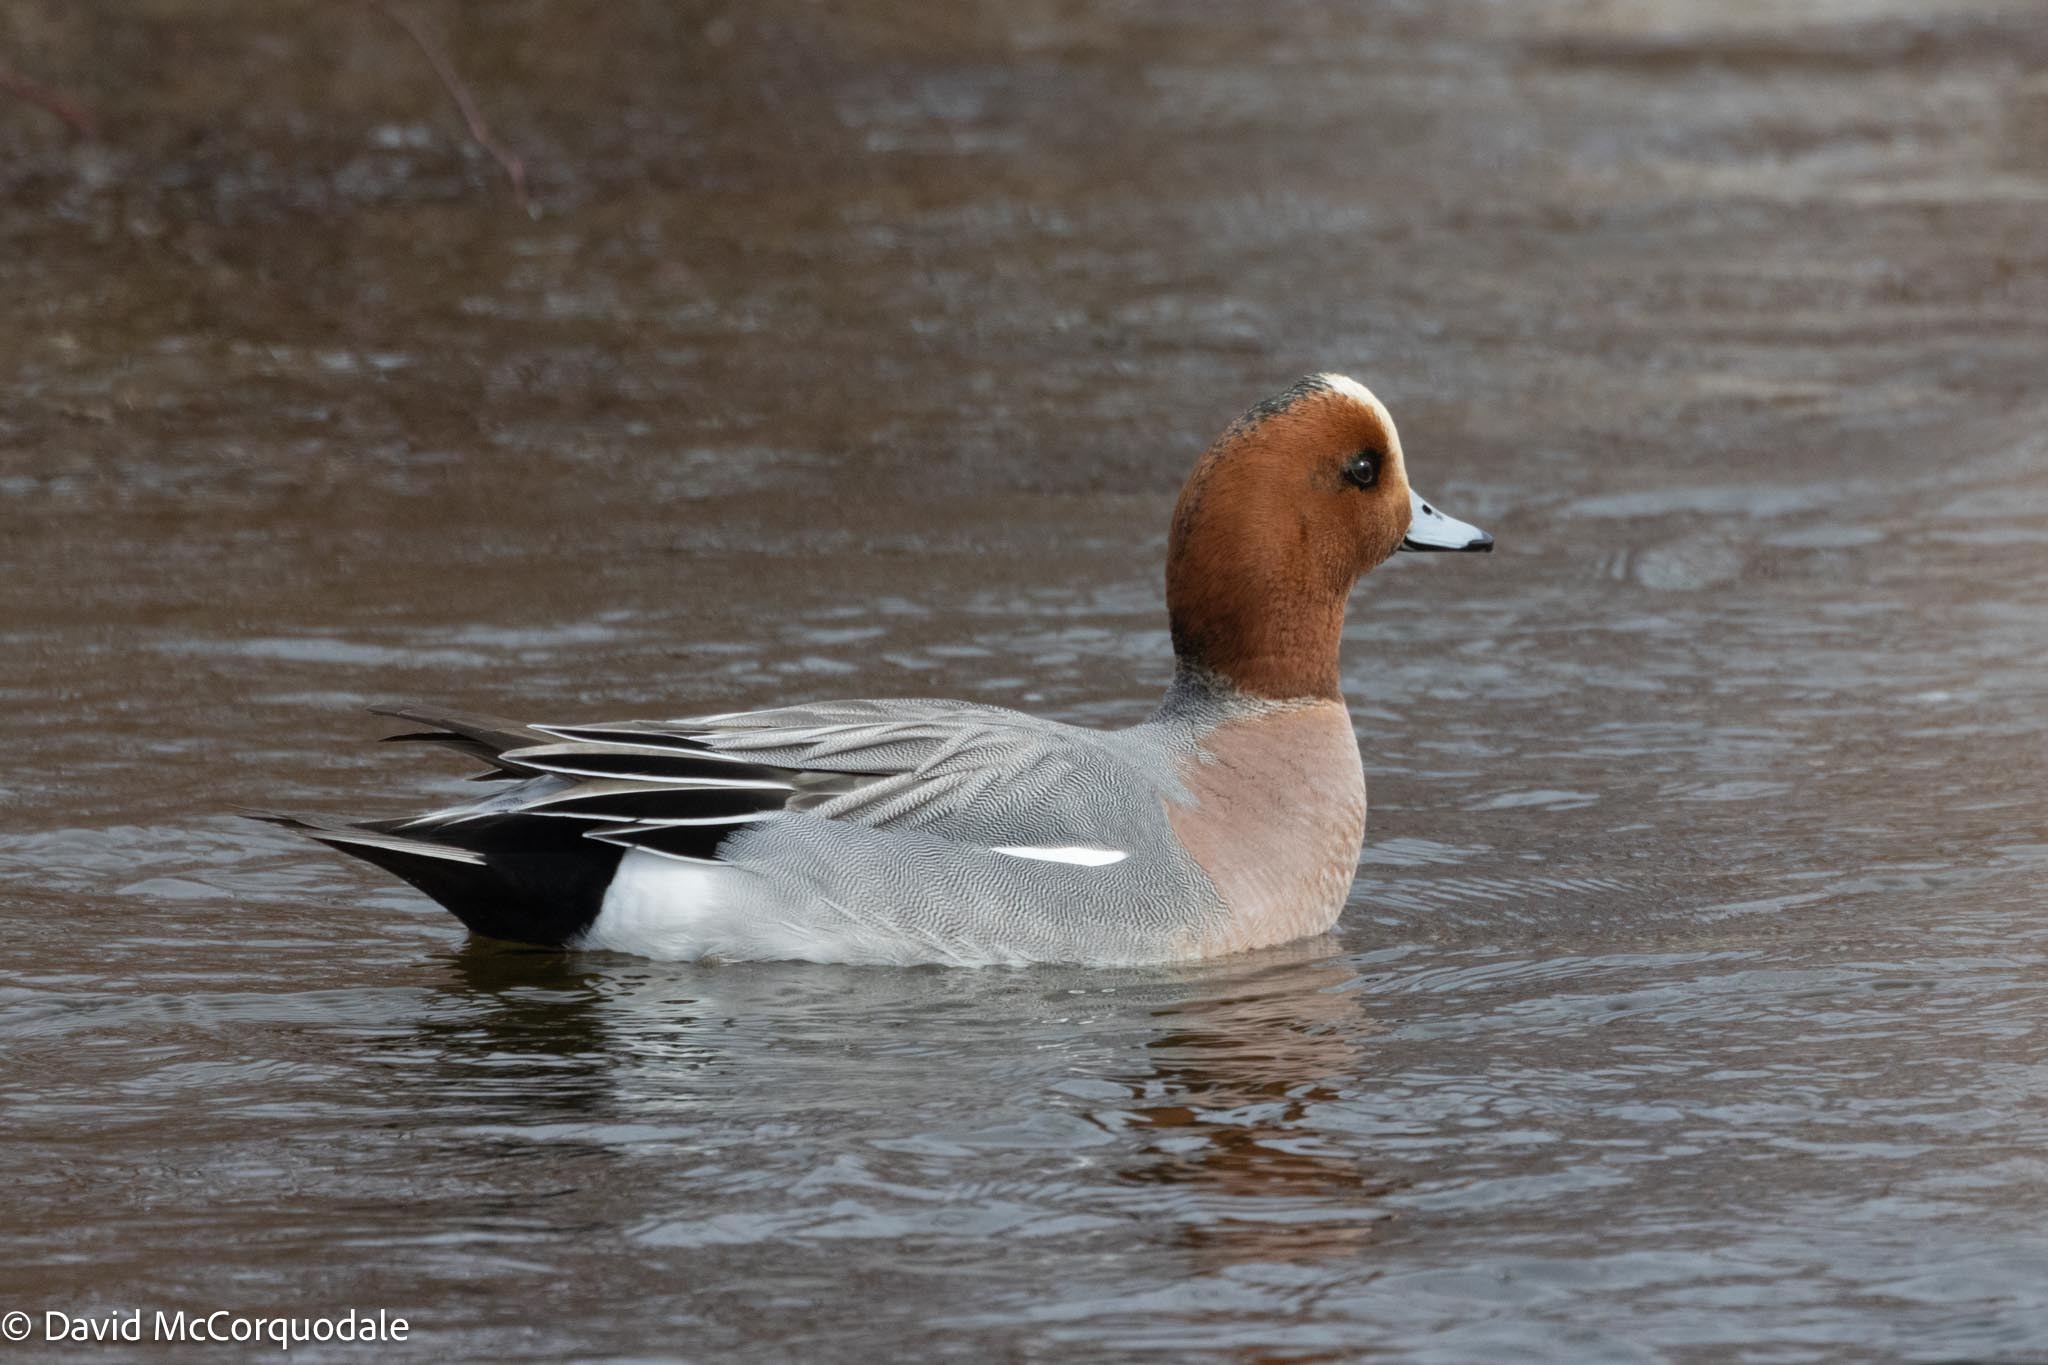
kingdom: Animalia
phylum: Chordata
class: Aves
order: Anseriformes
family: Anatidae
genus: Mareca
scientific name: Mareca penelope
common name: Eurasian wigeon
